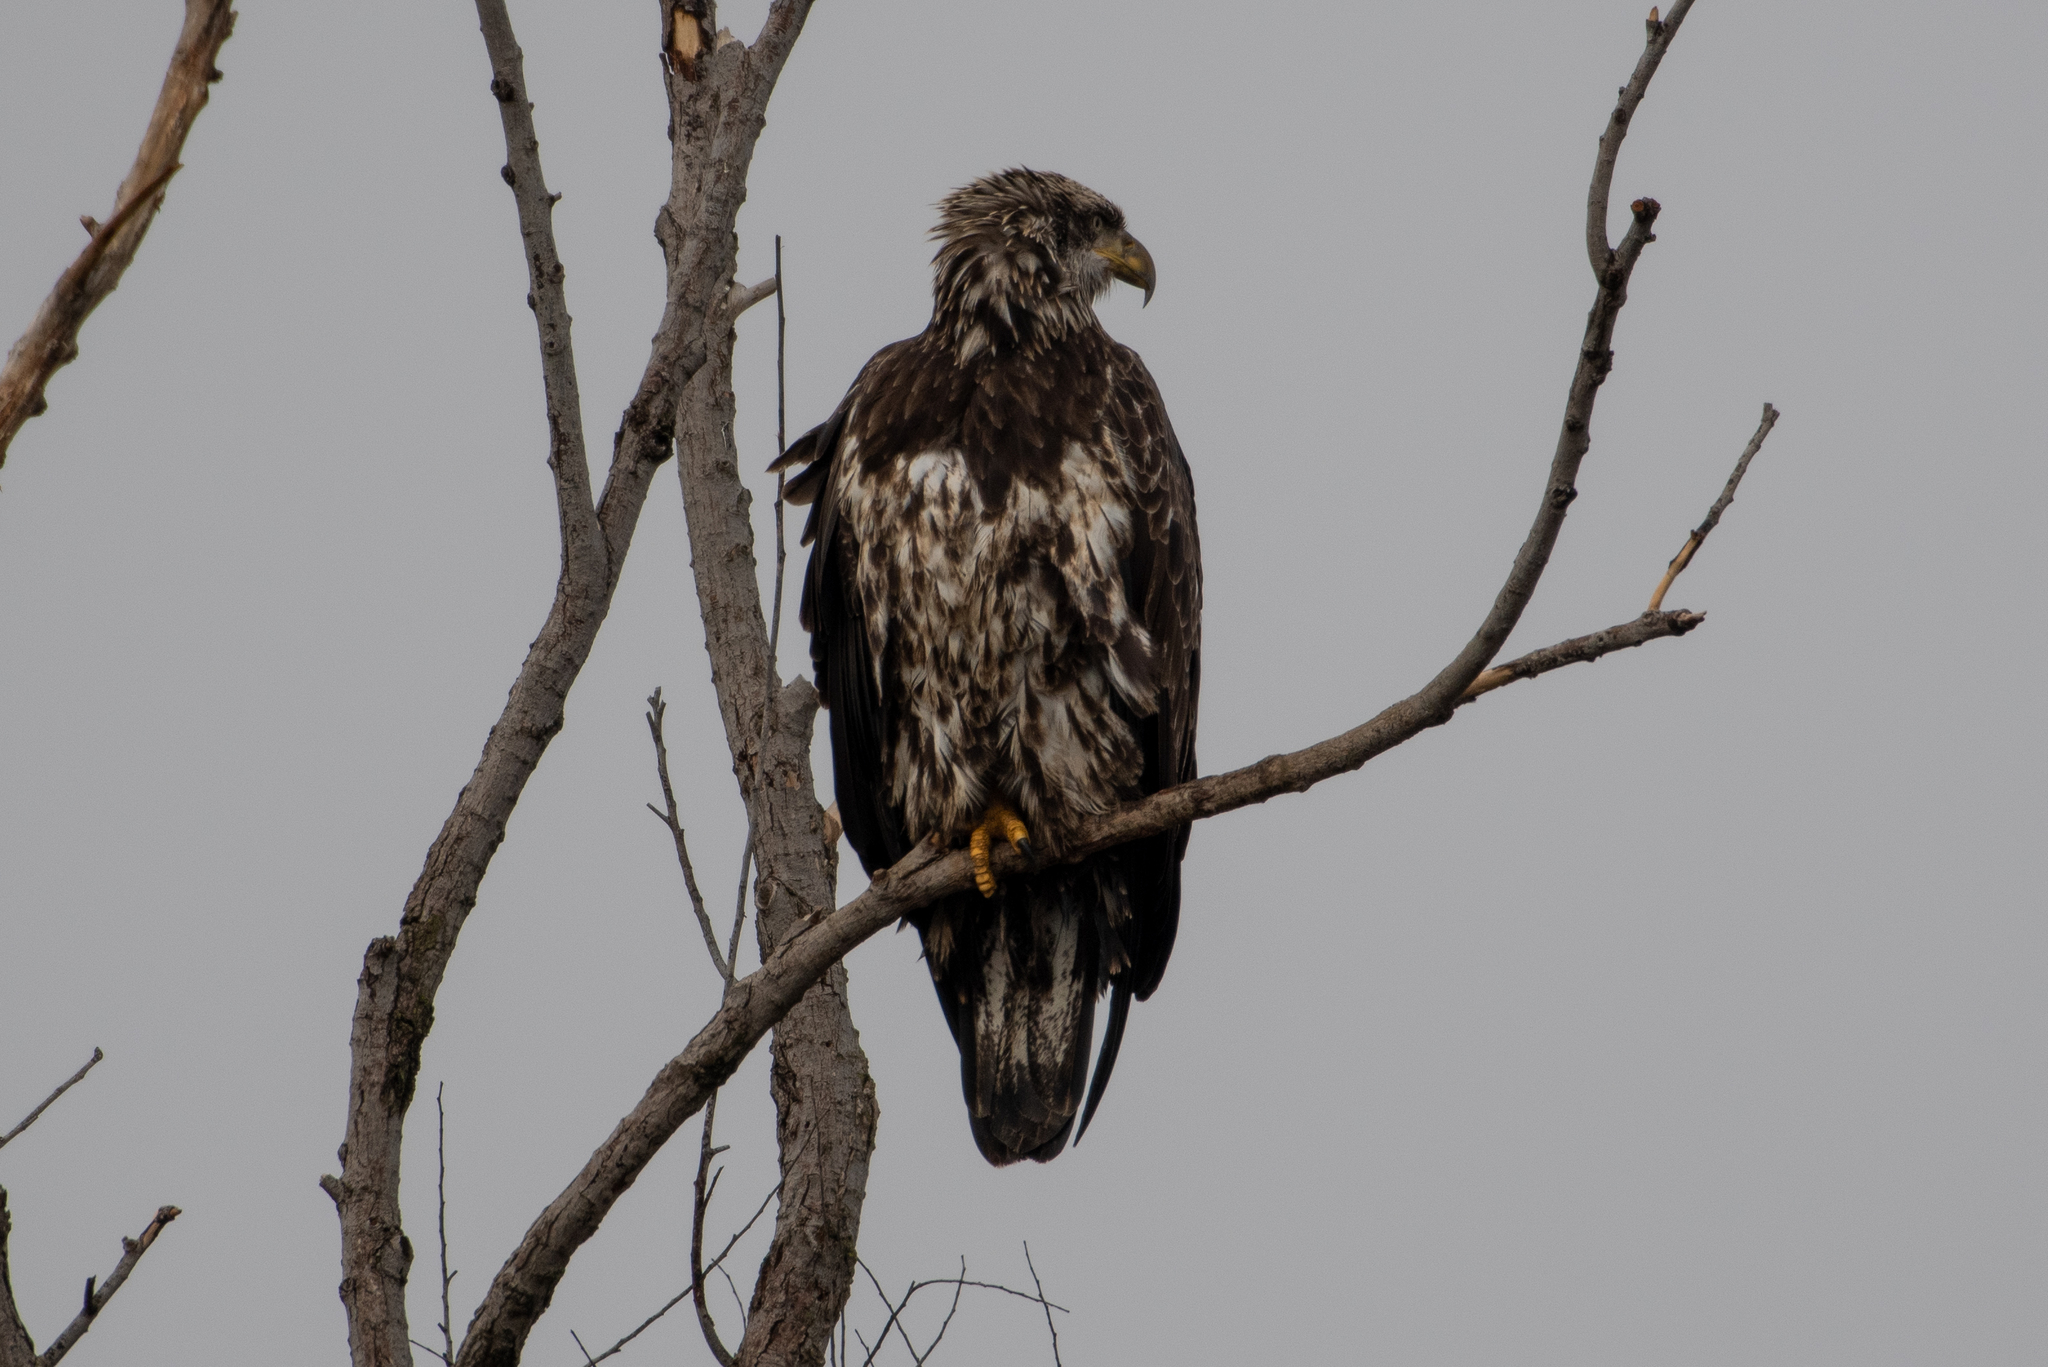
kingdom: Animalia
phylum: Chordata
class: Aves
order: Accipitriformes
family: Accipitridae
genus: Haliaeetus
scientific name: Haliaeetus leucocephalus
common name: Bald eagle
